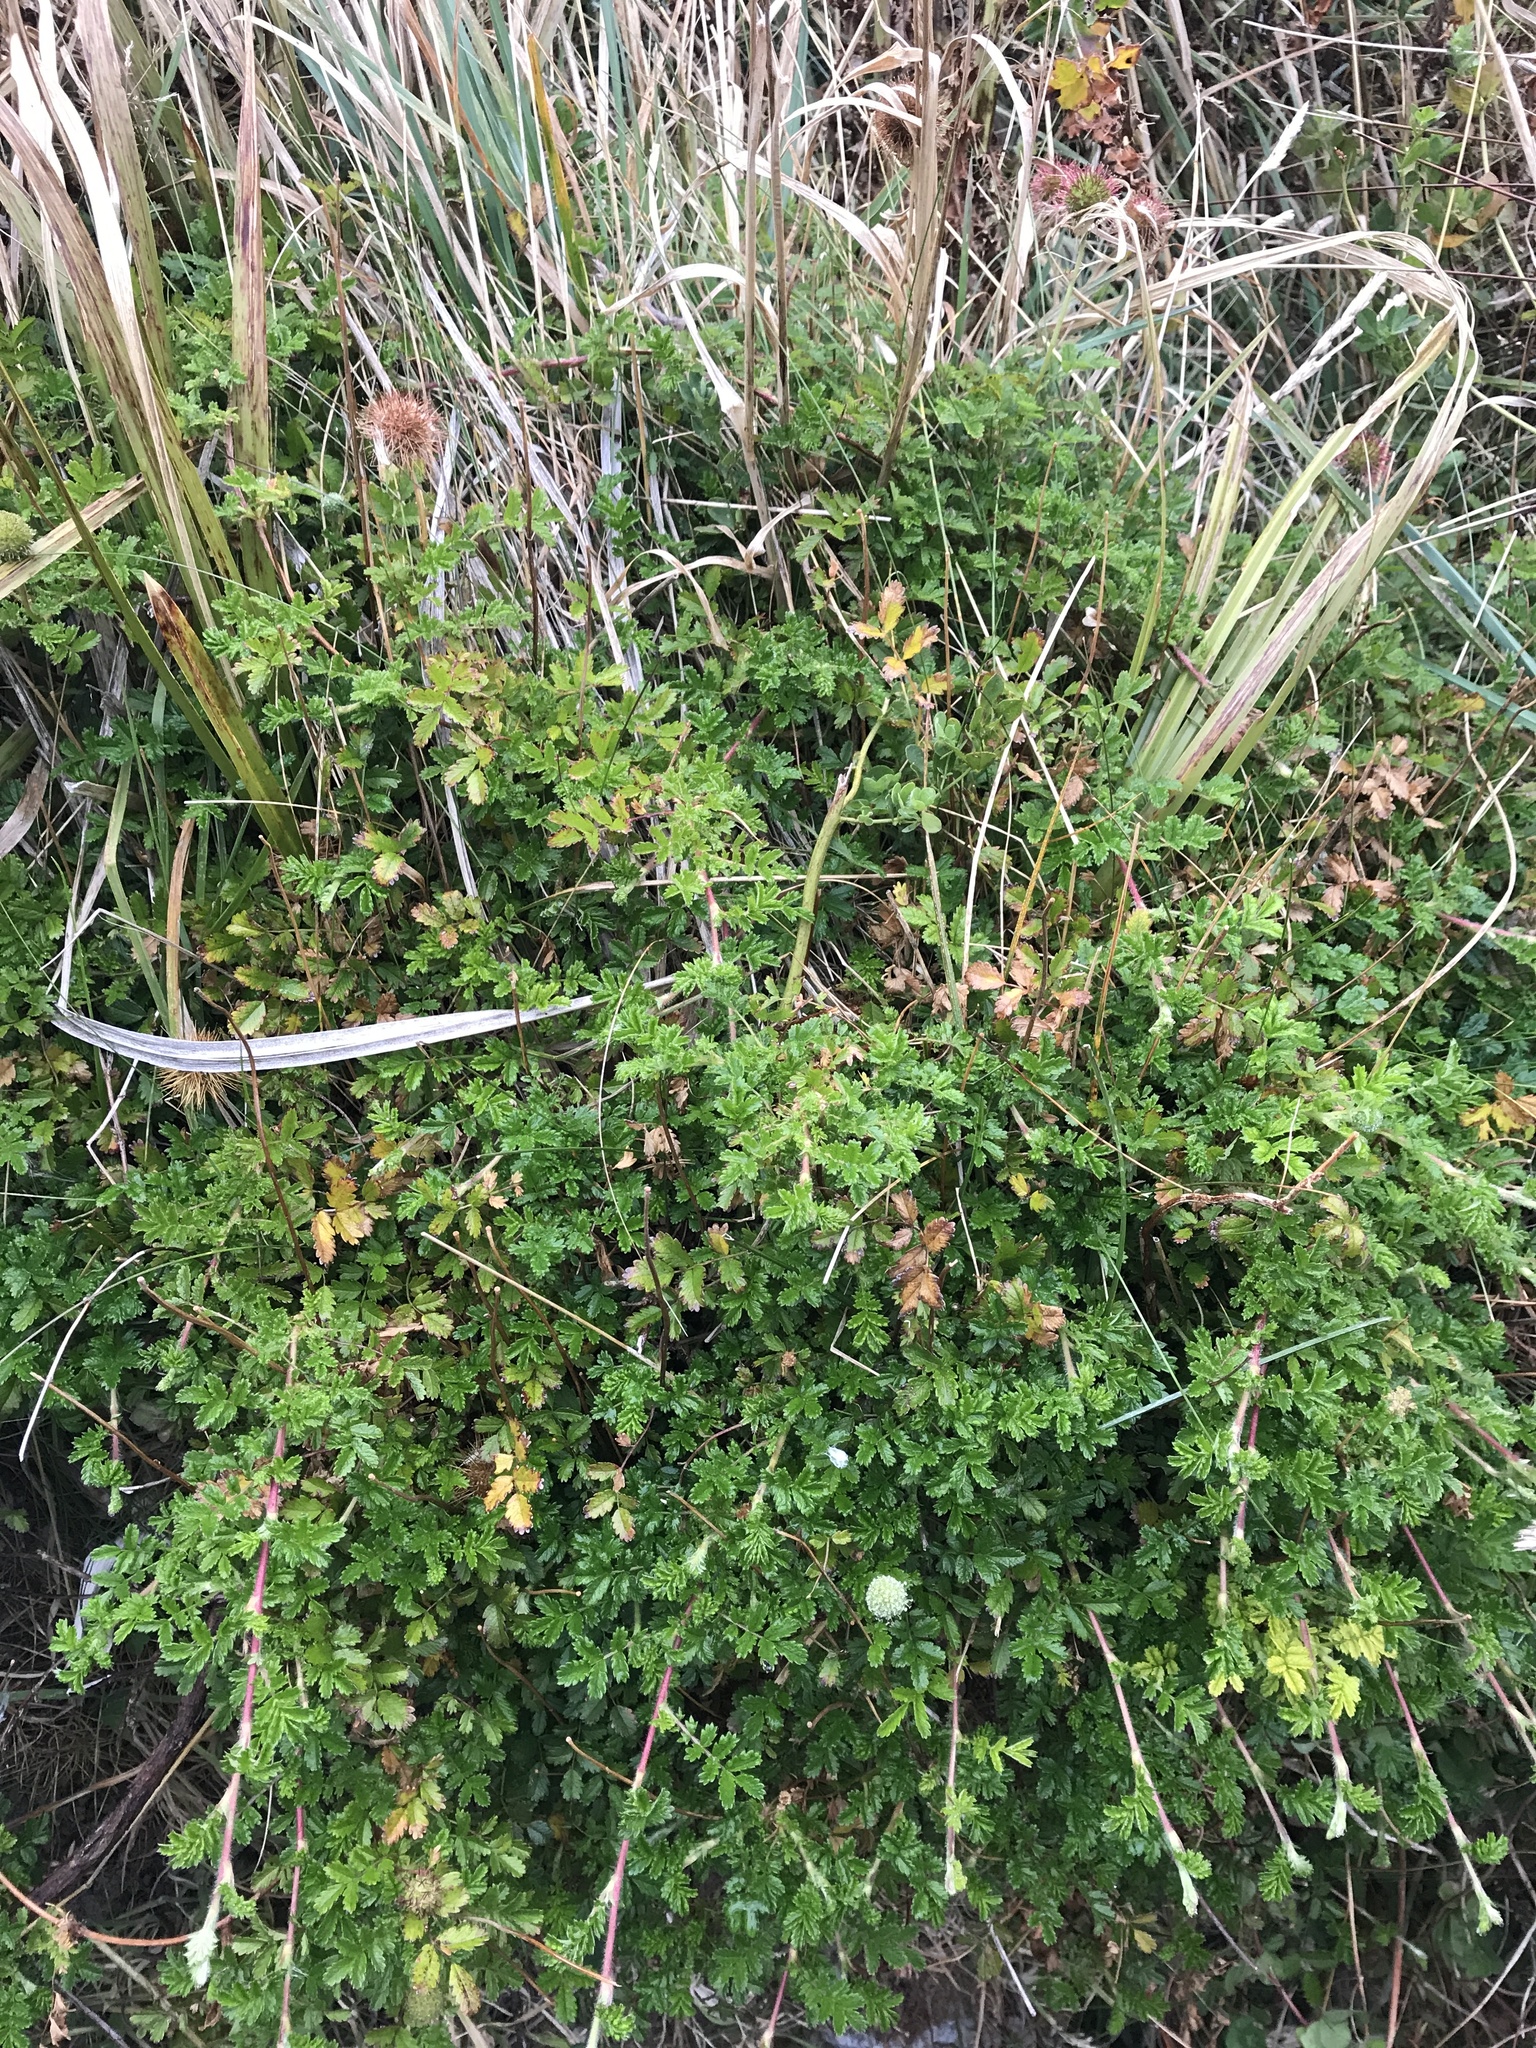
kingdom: Plantae
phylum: Tracheophyta
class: Magnoliopsida
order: Rosales
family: Rosaceae
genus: Acaena
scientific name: Acaena novae-zelandiae
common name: Pirri-pirri-bur
